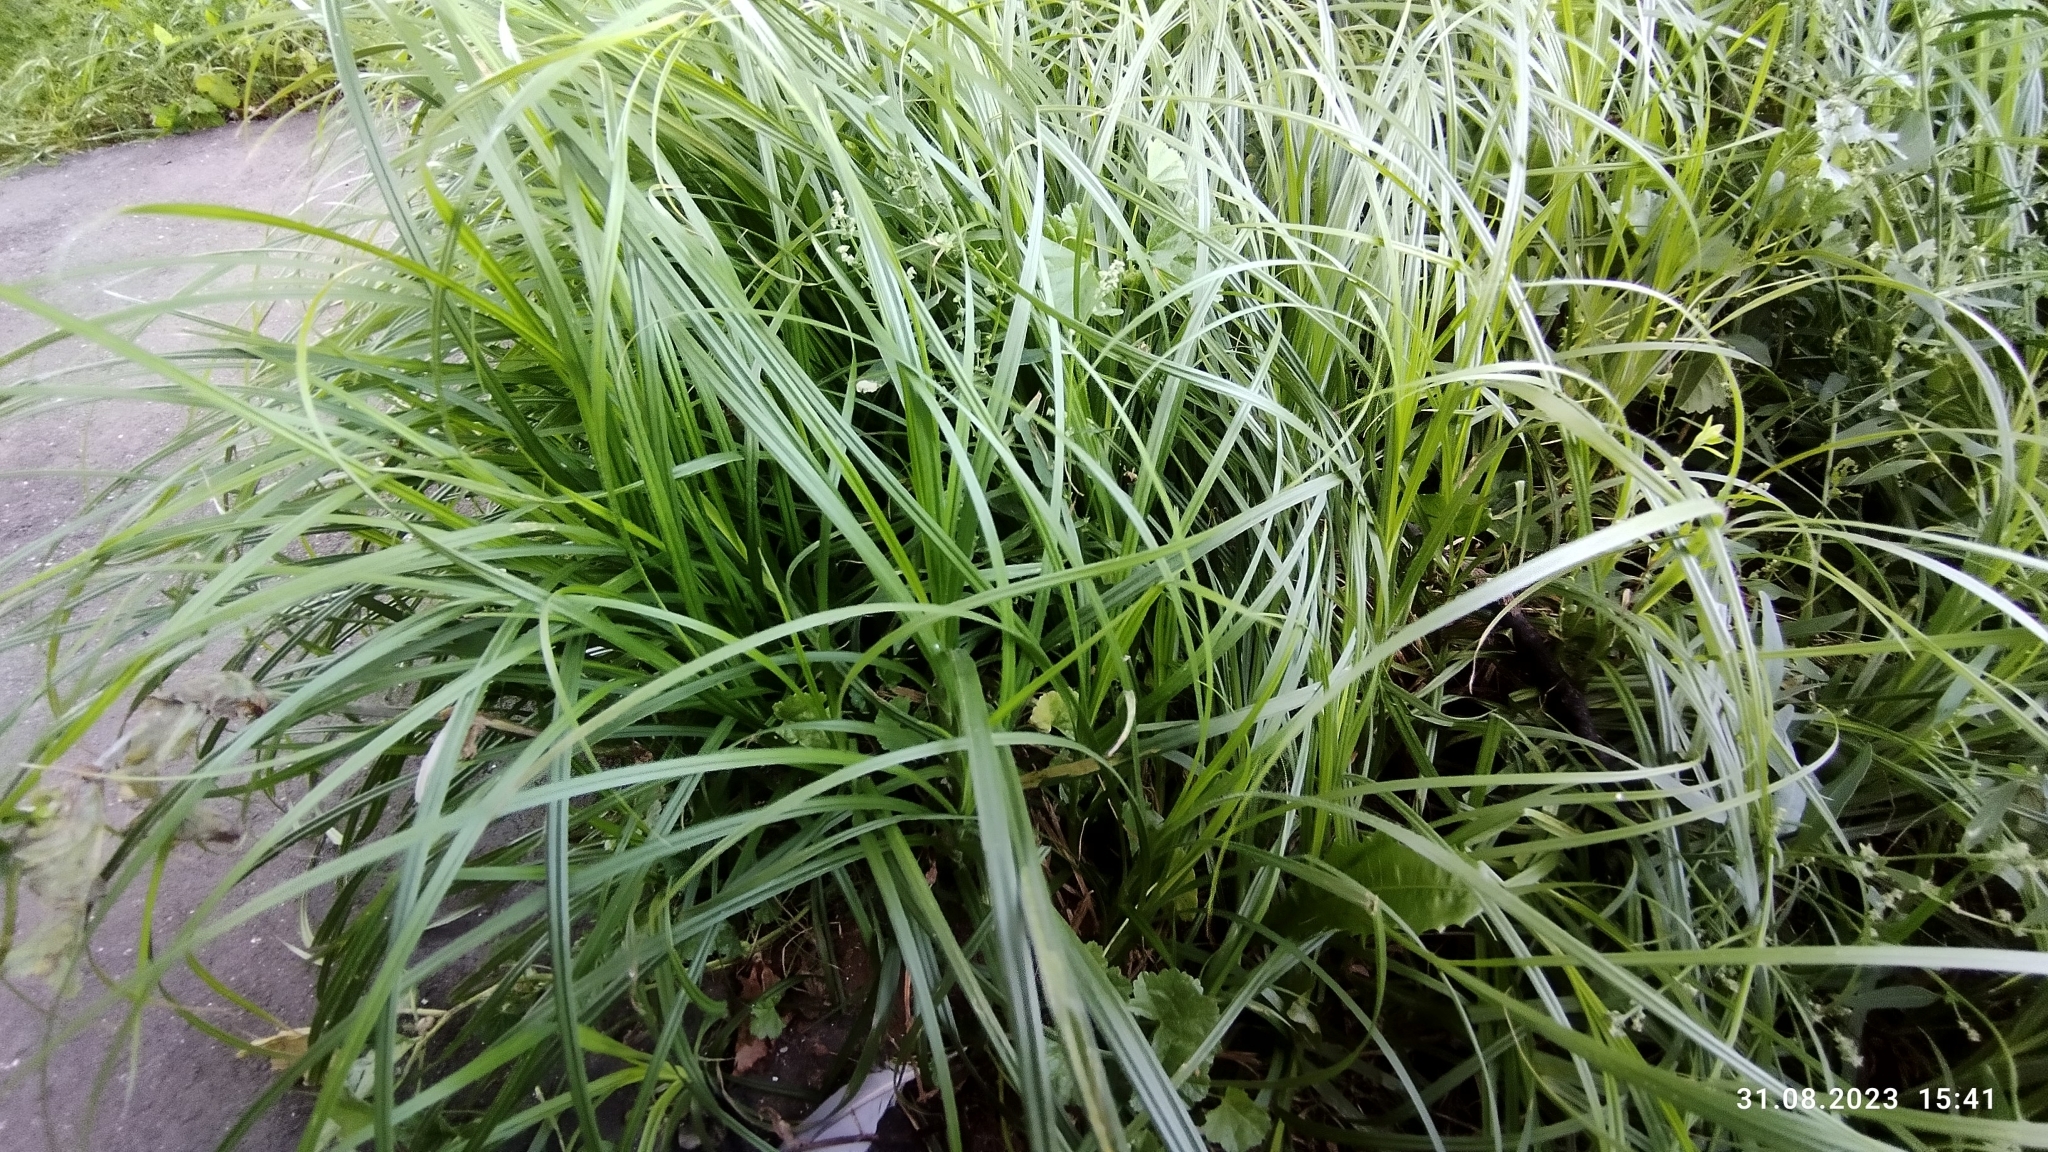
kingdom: Plantae
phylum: Tracheophyta
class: Liliopsida
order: Poales
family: Cyperaceae
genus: Carex
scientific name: Carex hirta
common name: Hairy sedge
